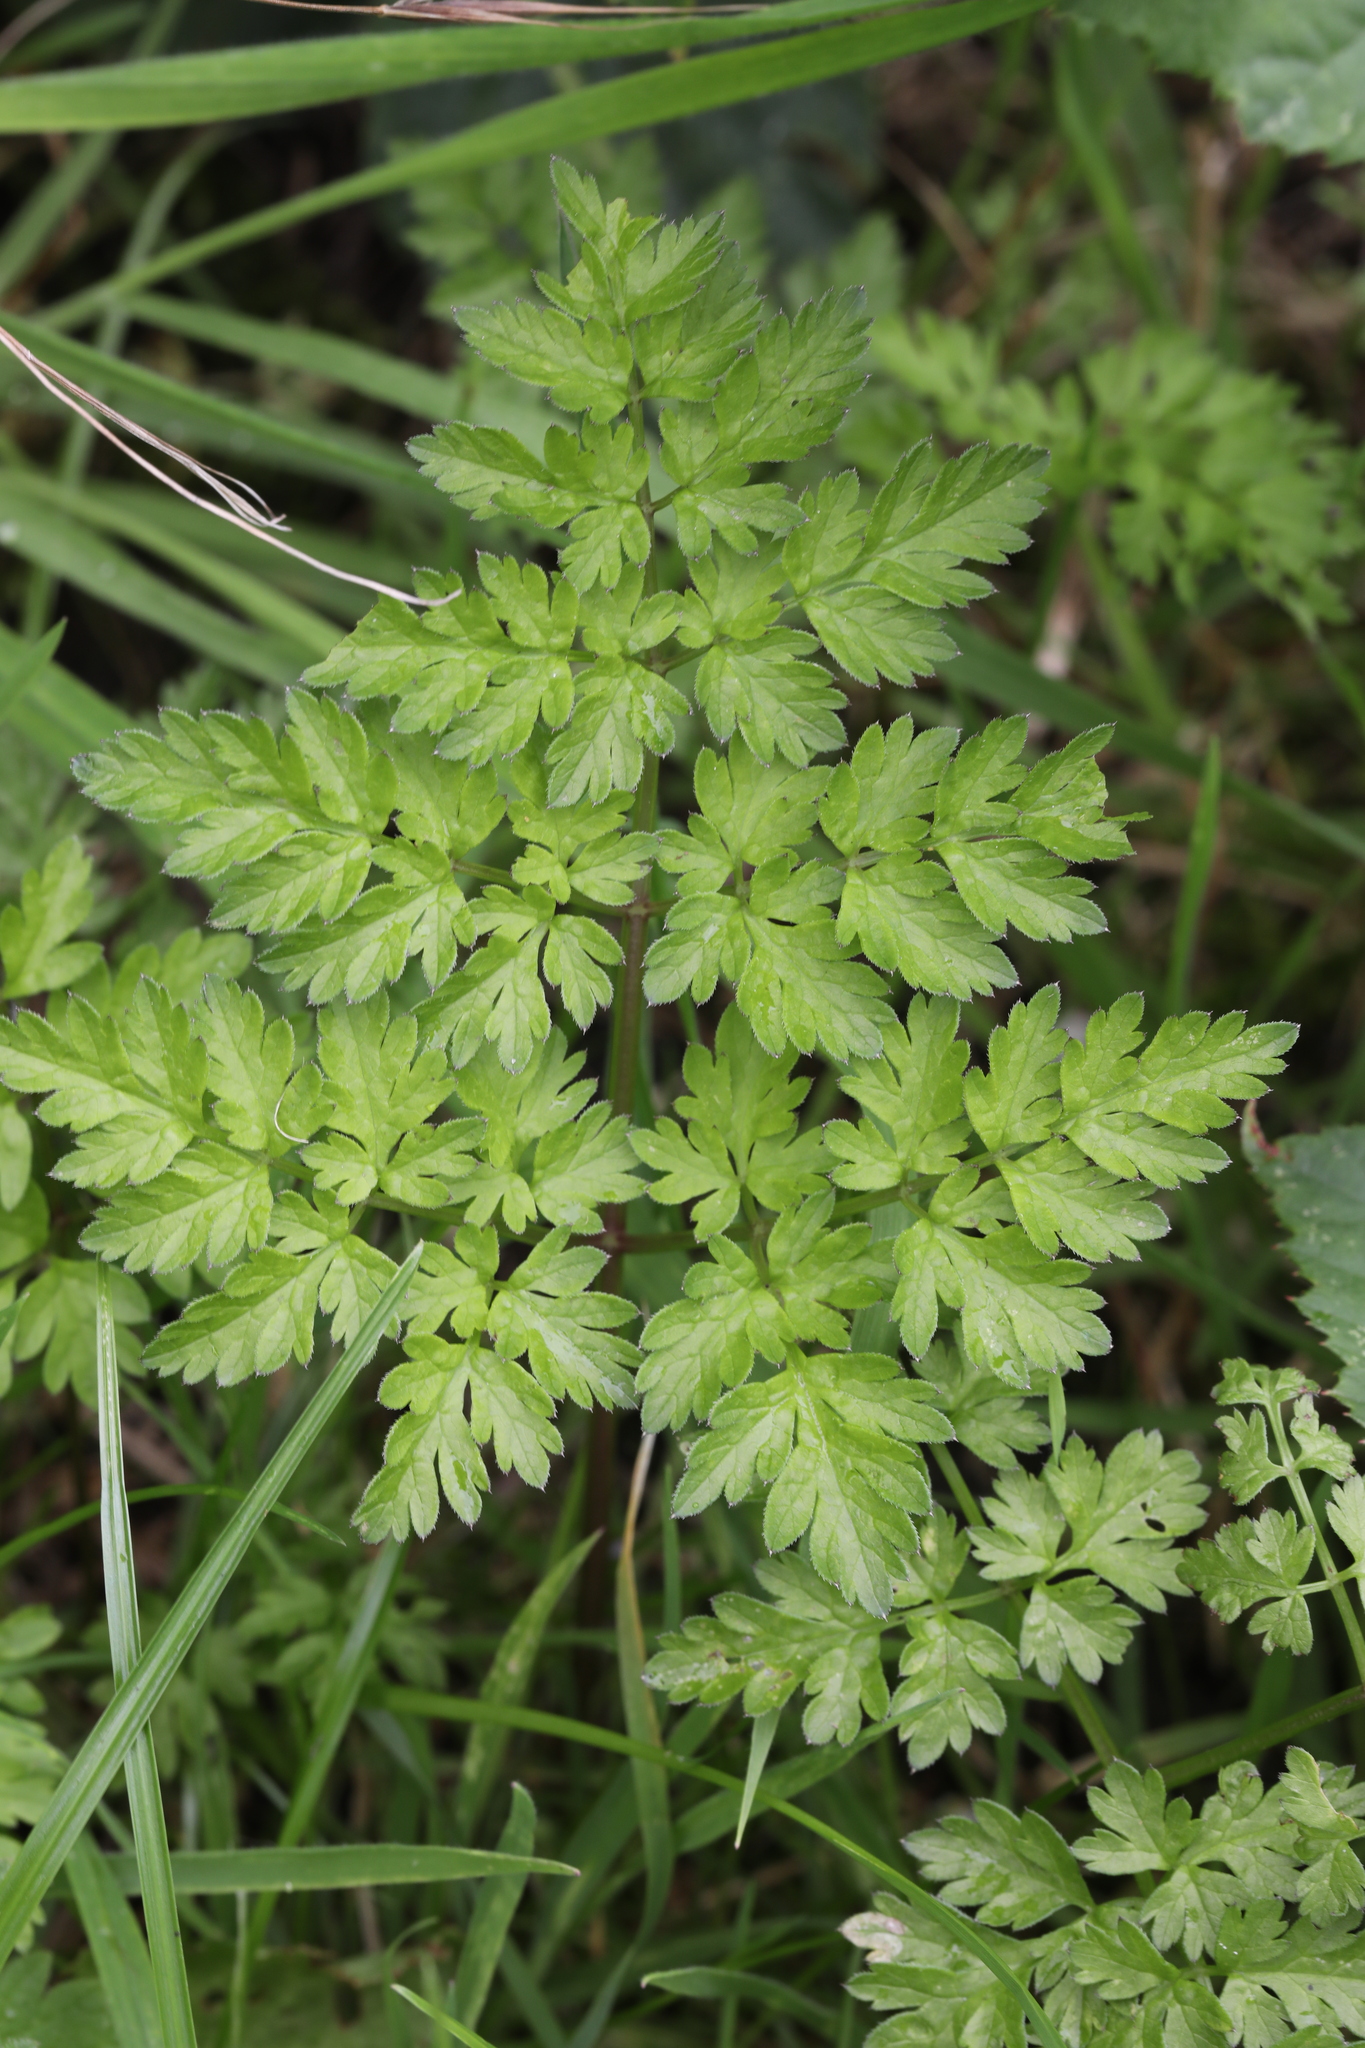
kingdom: Plantae
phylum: Tracheophyta
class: Magnoliopsida
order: Apiales
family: Apiaceae
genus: Anthriscus
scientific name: Anthriscus sylvestris
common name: Cow parsley
